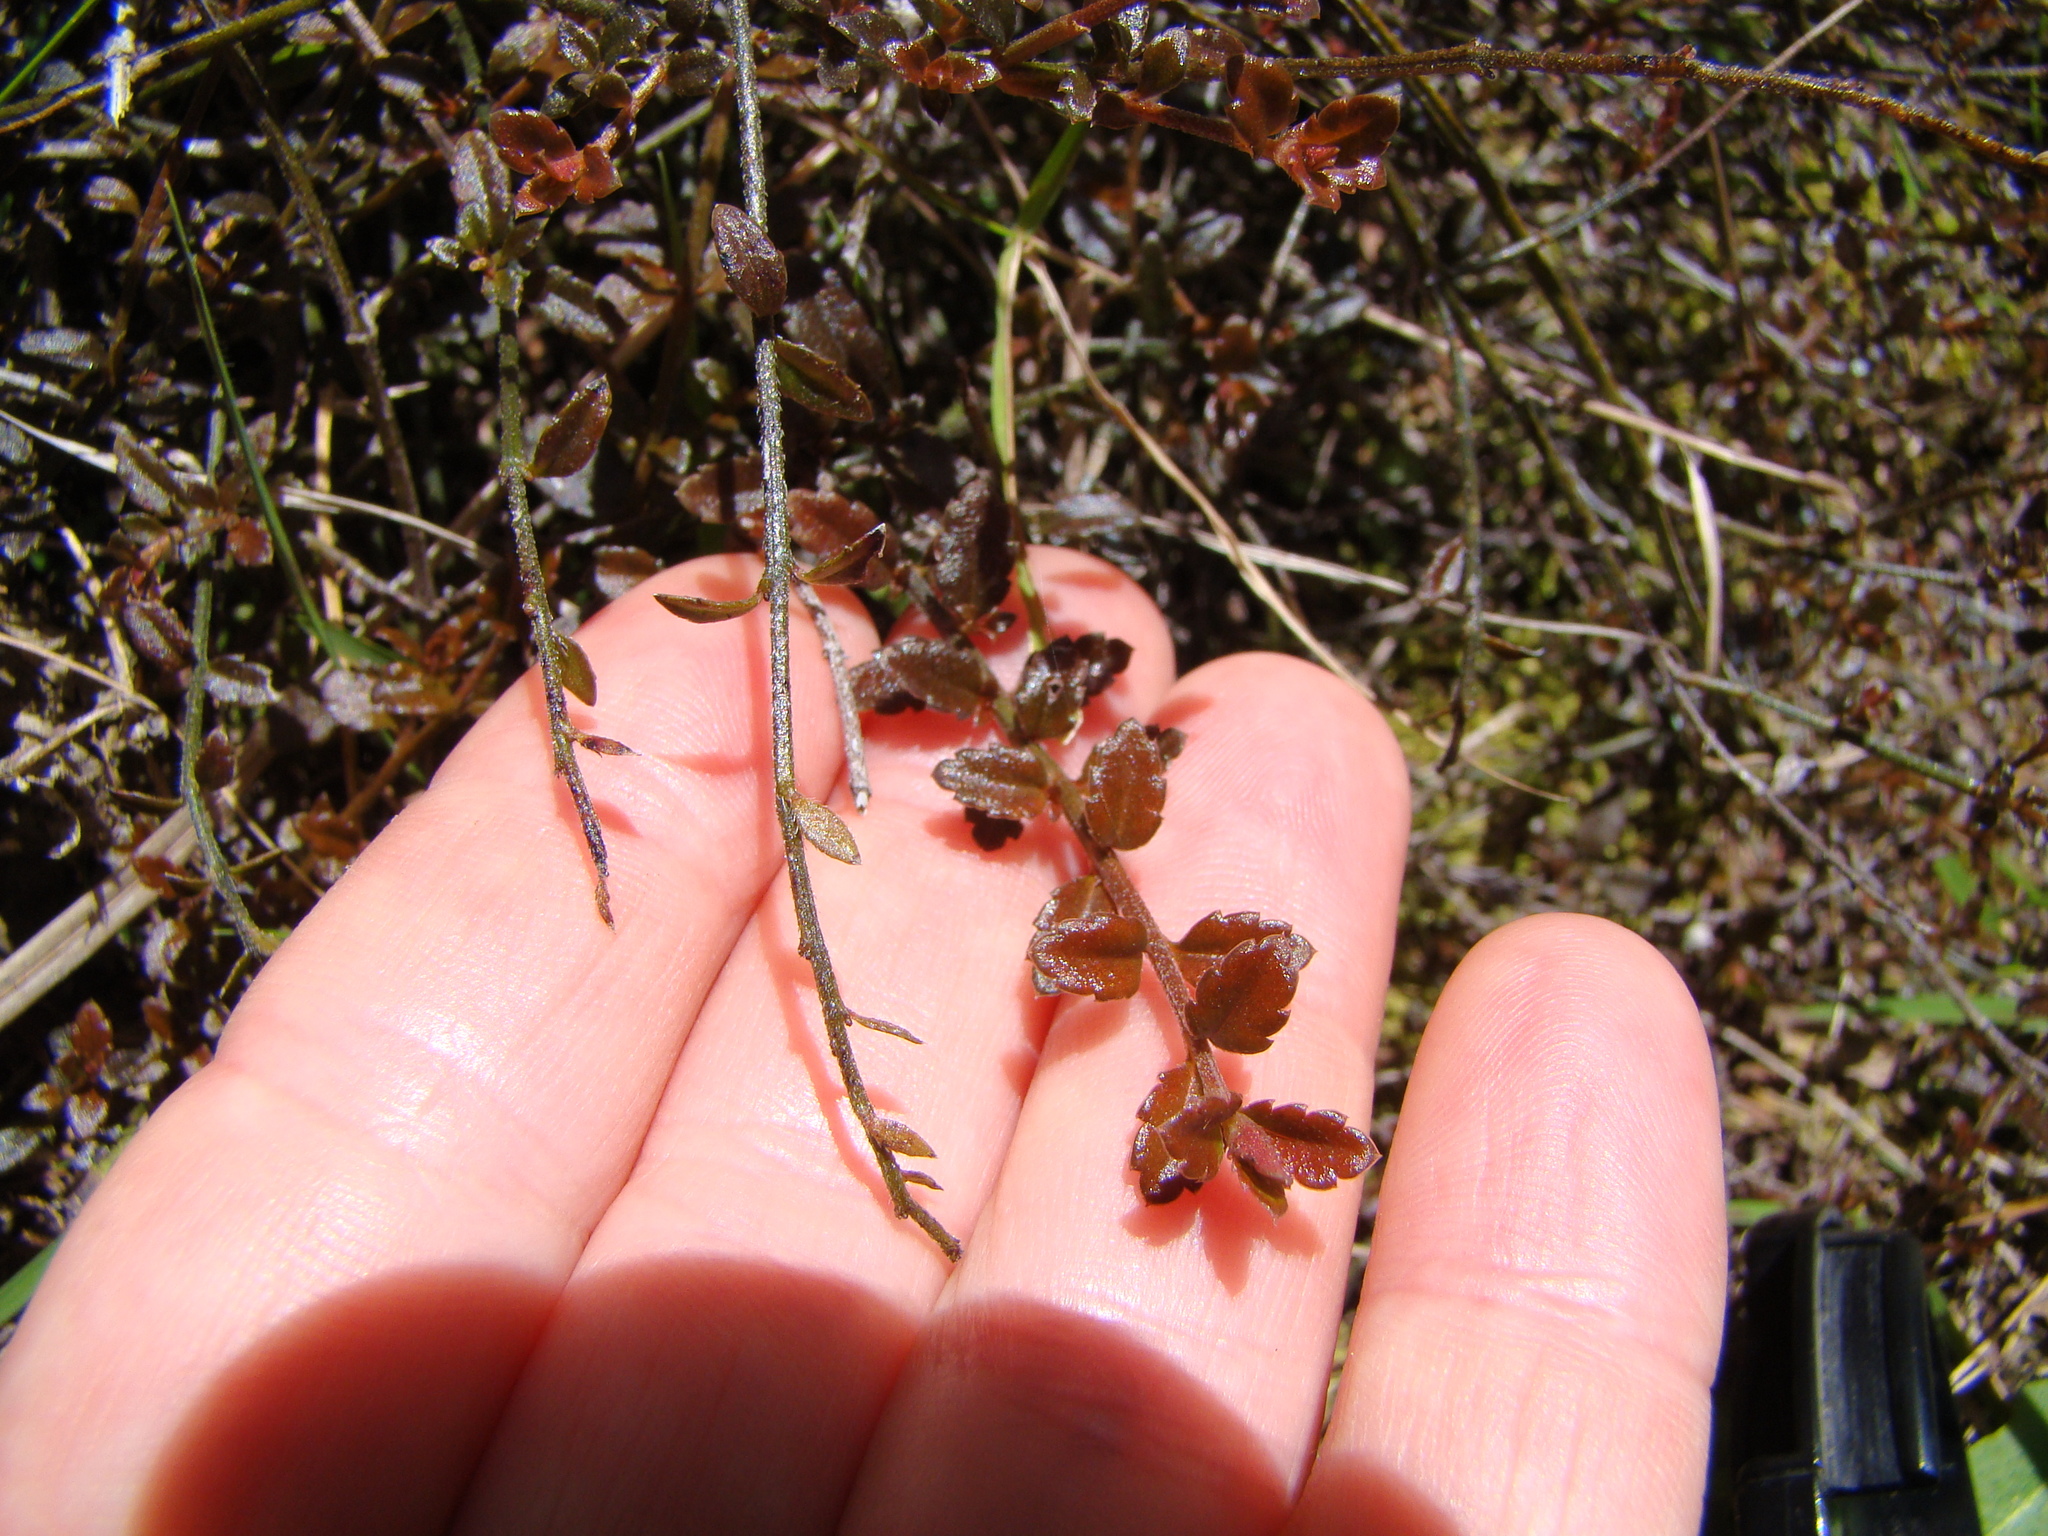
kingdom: Plantae
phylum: Tracheophyta
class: Magnoliopsida
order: Saxifragales
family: Haloragaceae
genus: Gonocarpus
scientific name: Gonocarpus incanus
